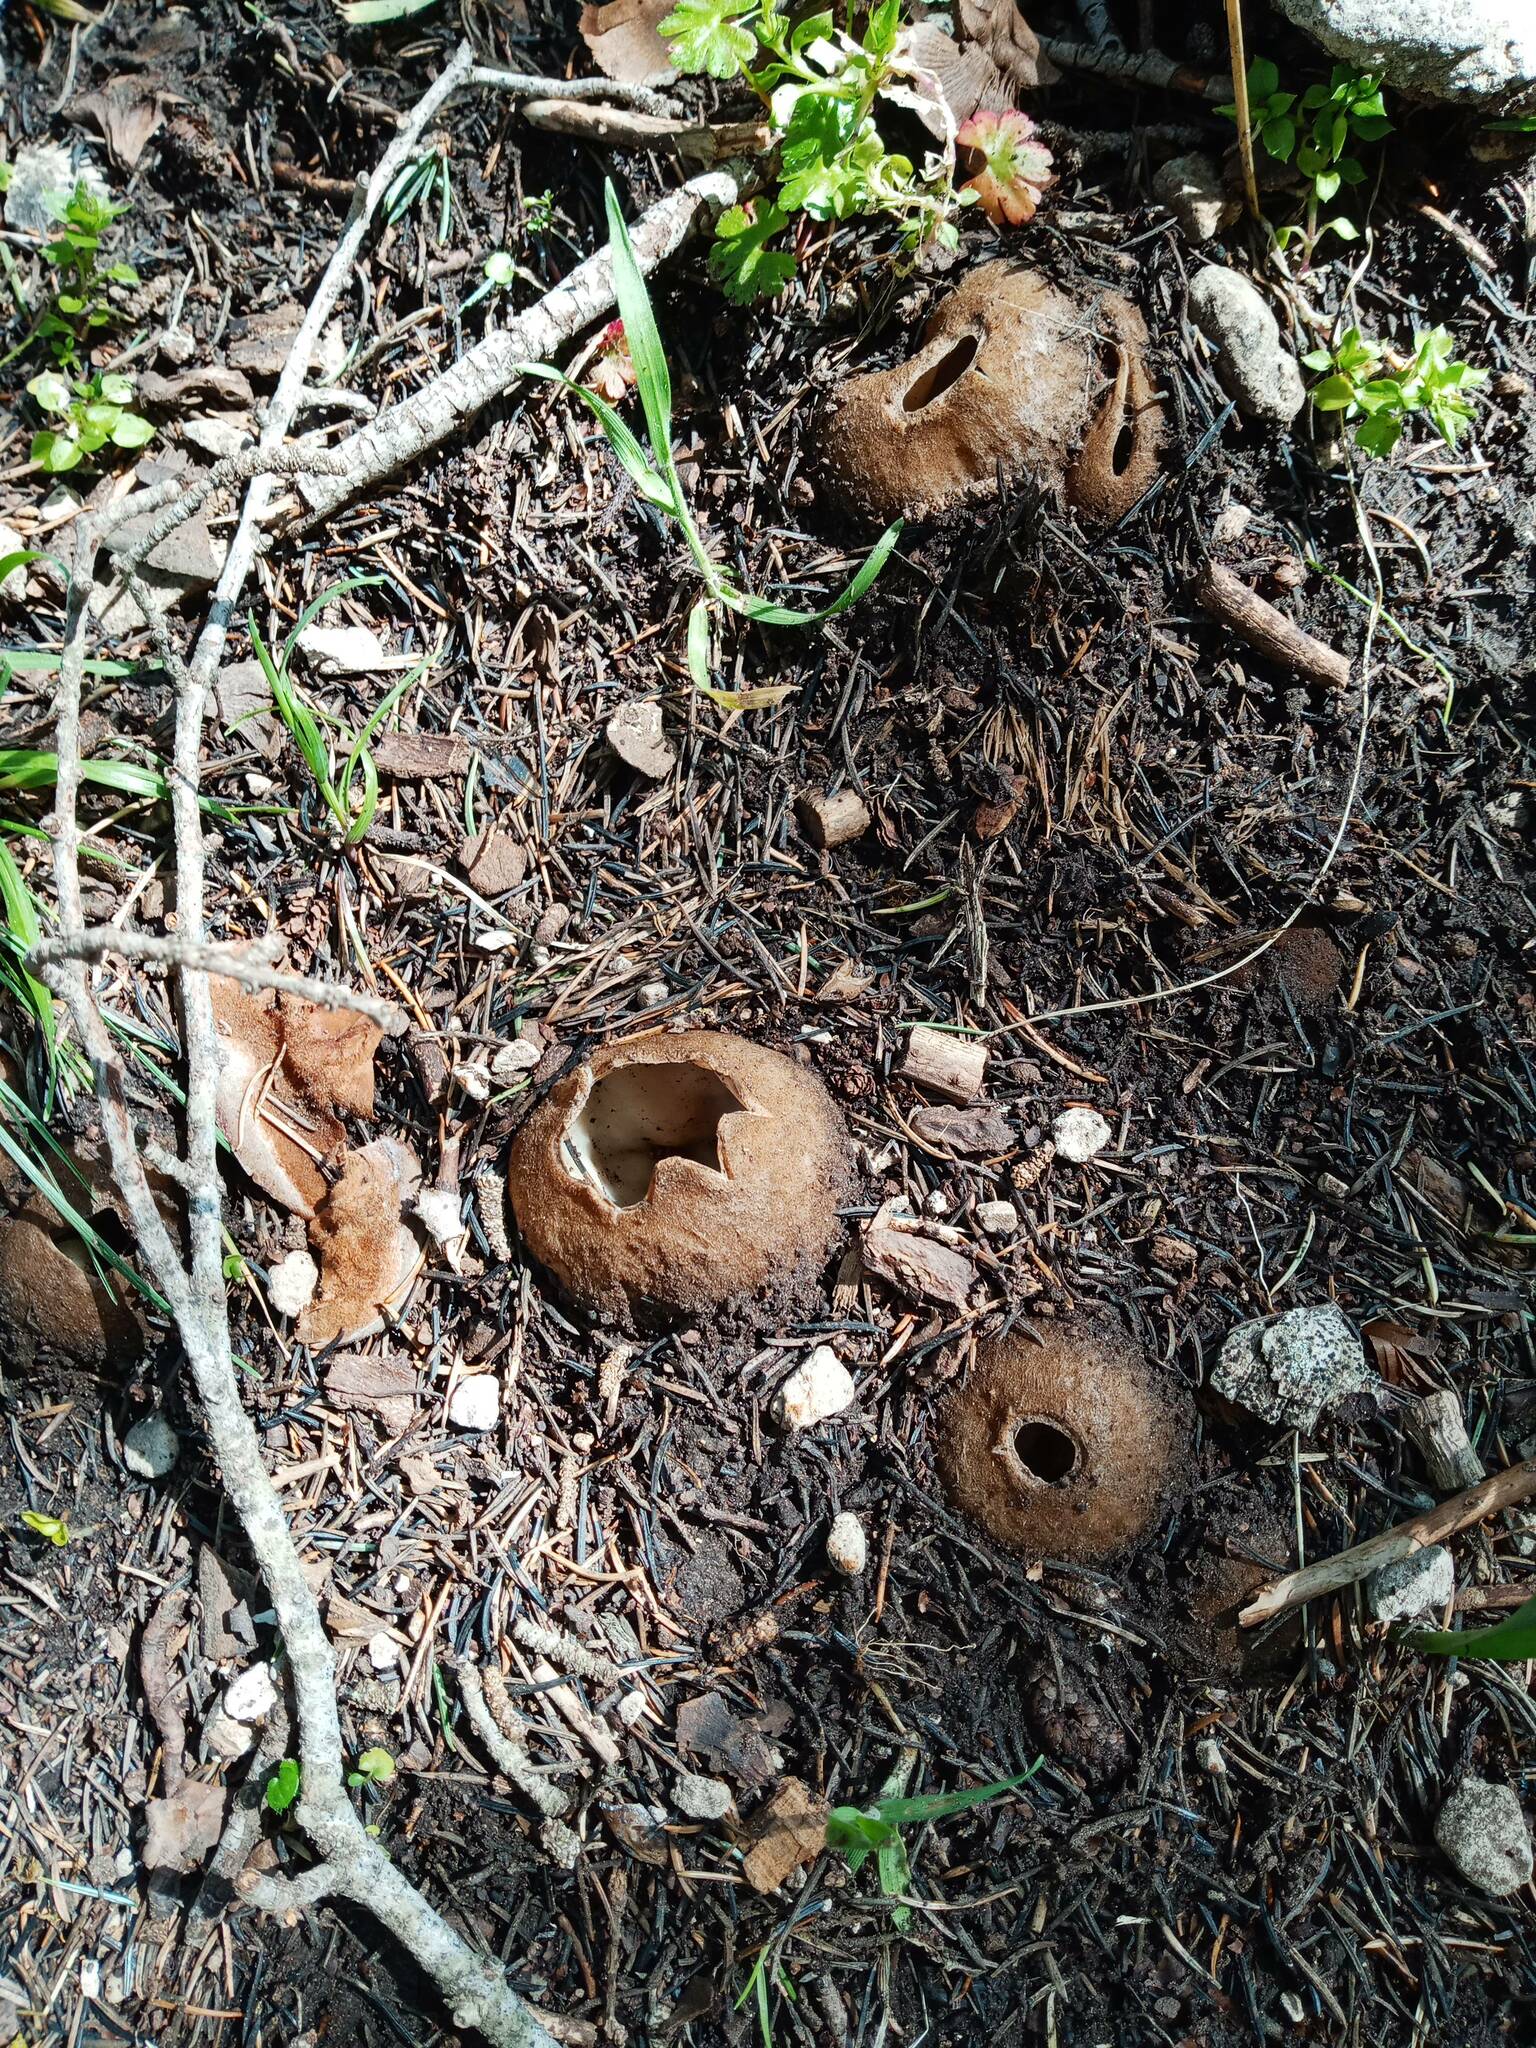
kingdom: Fungi
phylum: Ascomycota
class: Pezizomycetes
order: Pezizales
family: Pyronemataceae
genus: Geopora
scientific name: Geopora sumneriana
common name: Cedar cup
